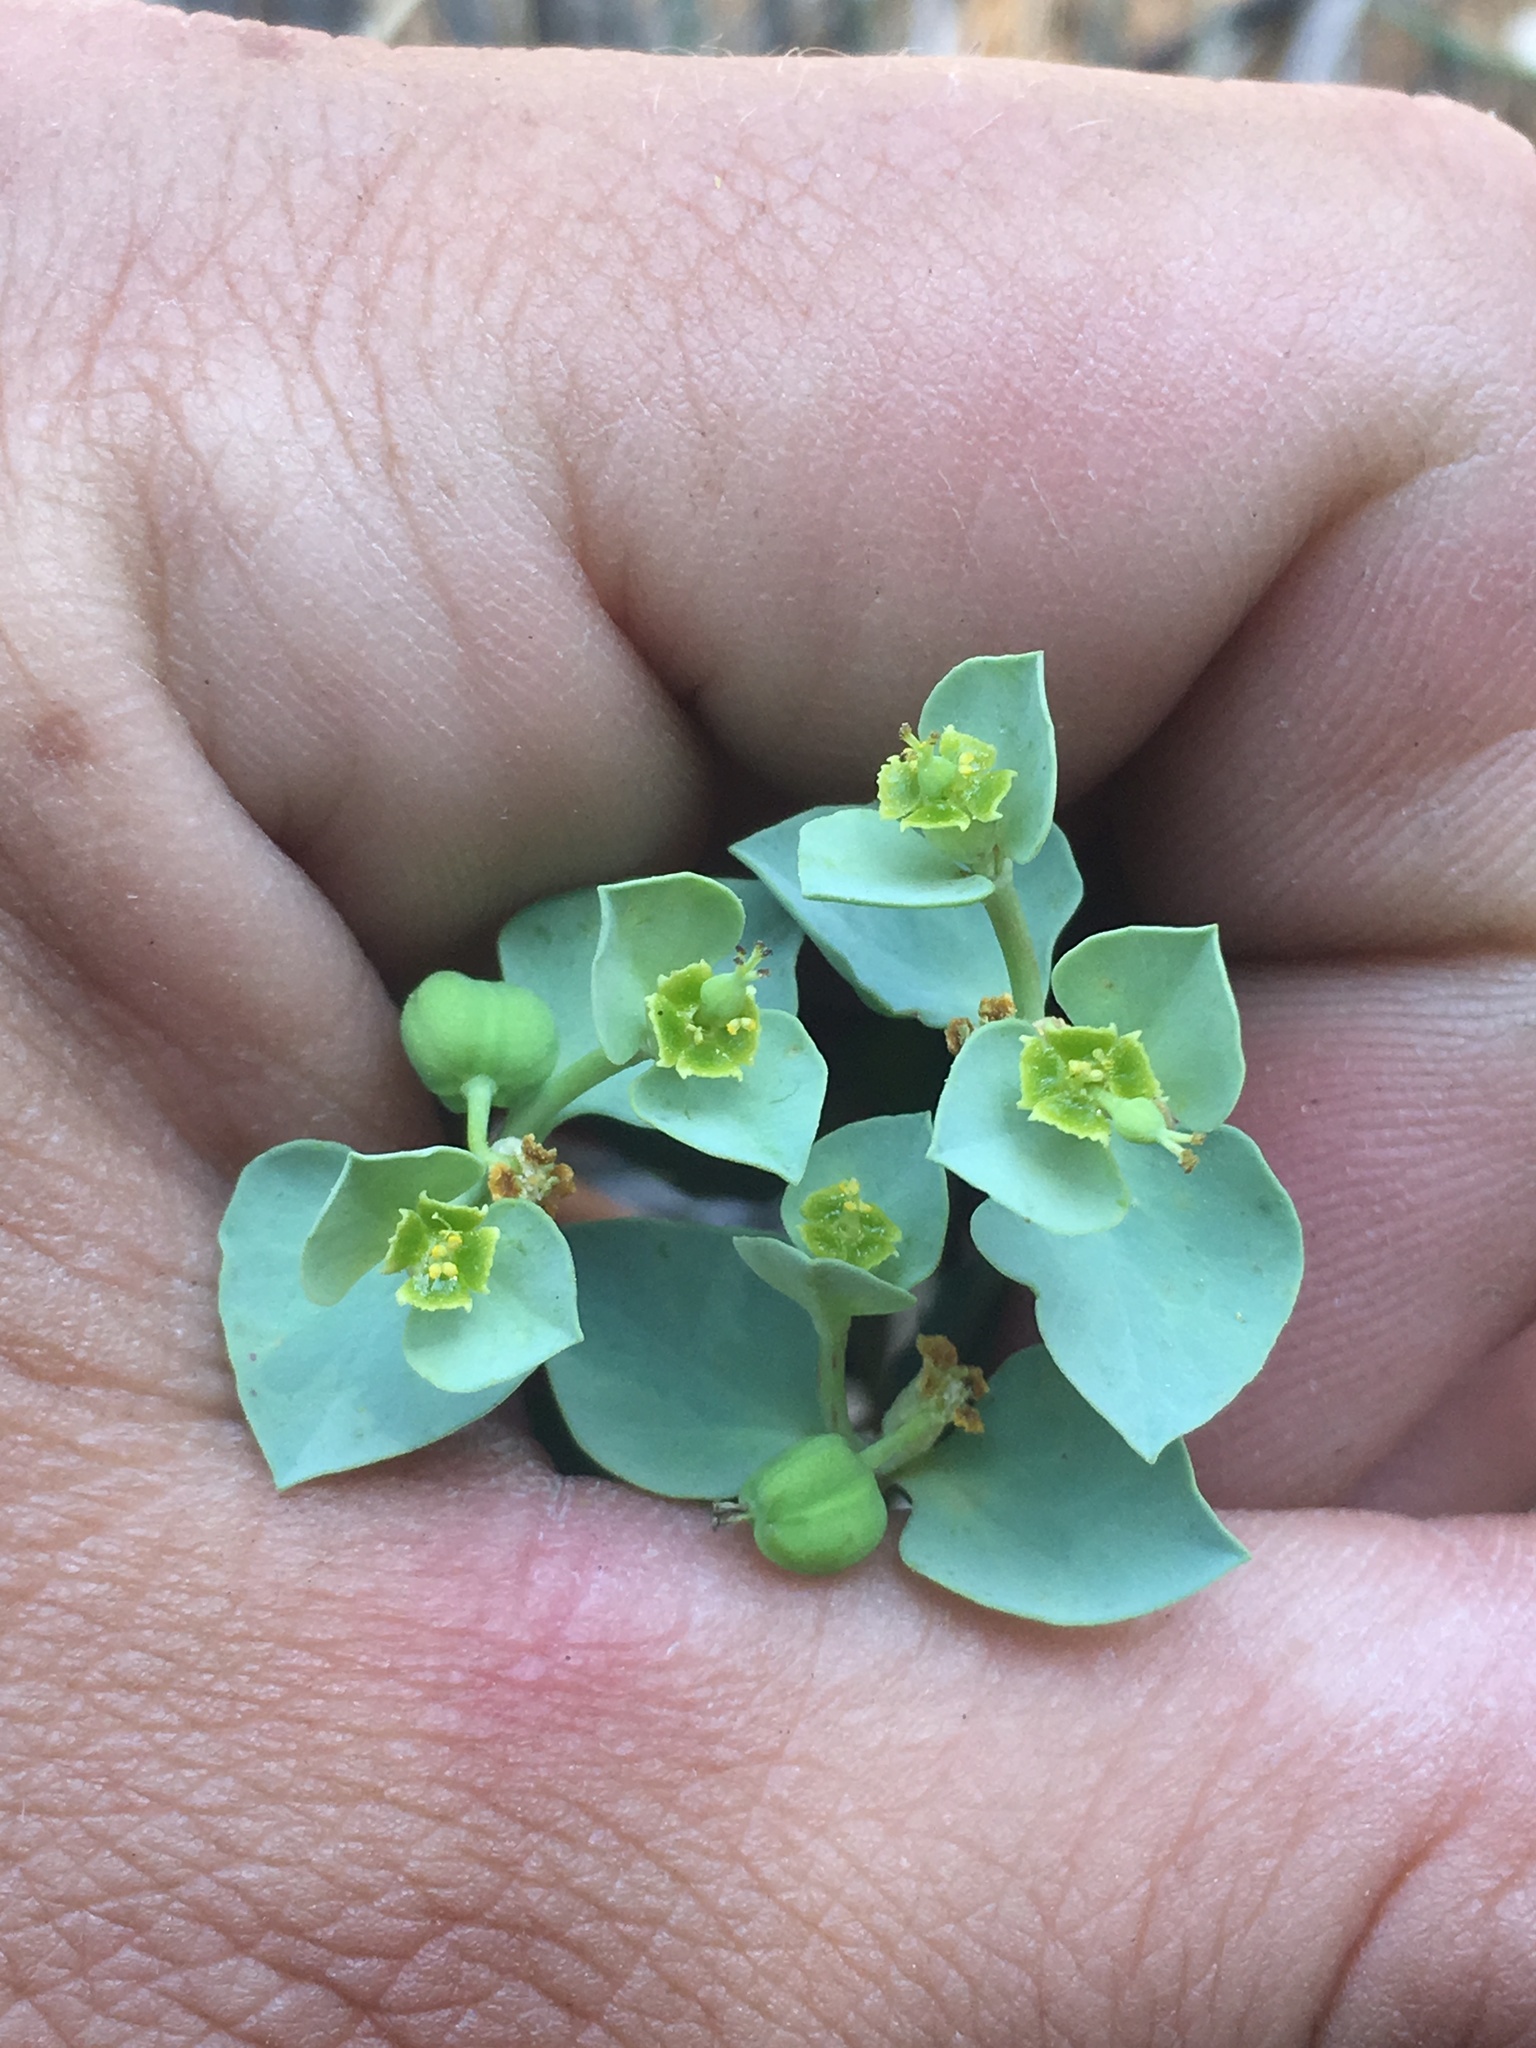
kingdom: Plantae
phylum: Tracheophyta
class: Magnoliopsida
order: Malpighiales
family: Euphorbiaceae
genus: Euphorbia
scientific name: Euphorbia lurida
